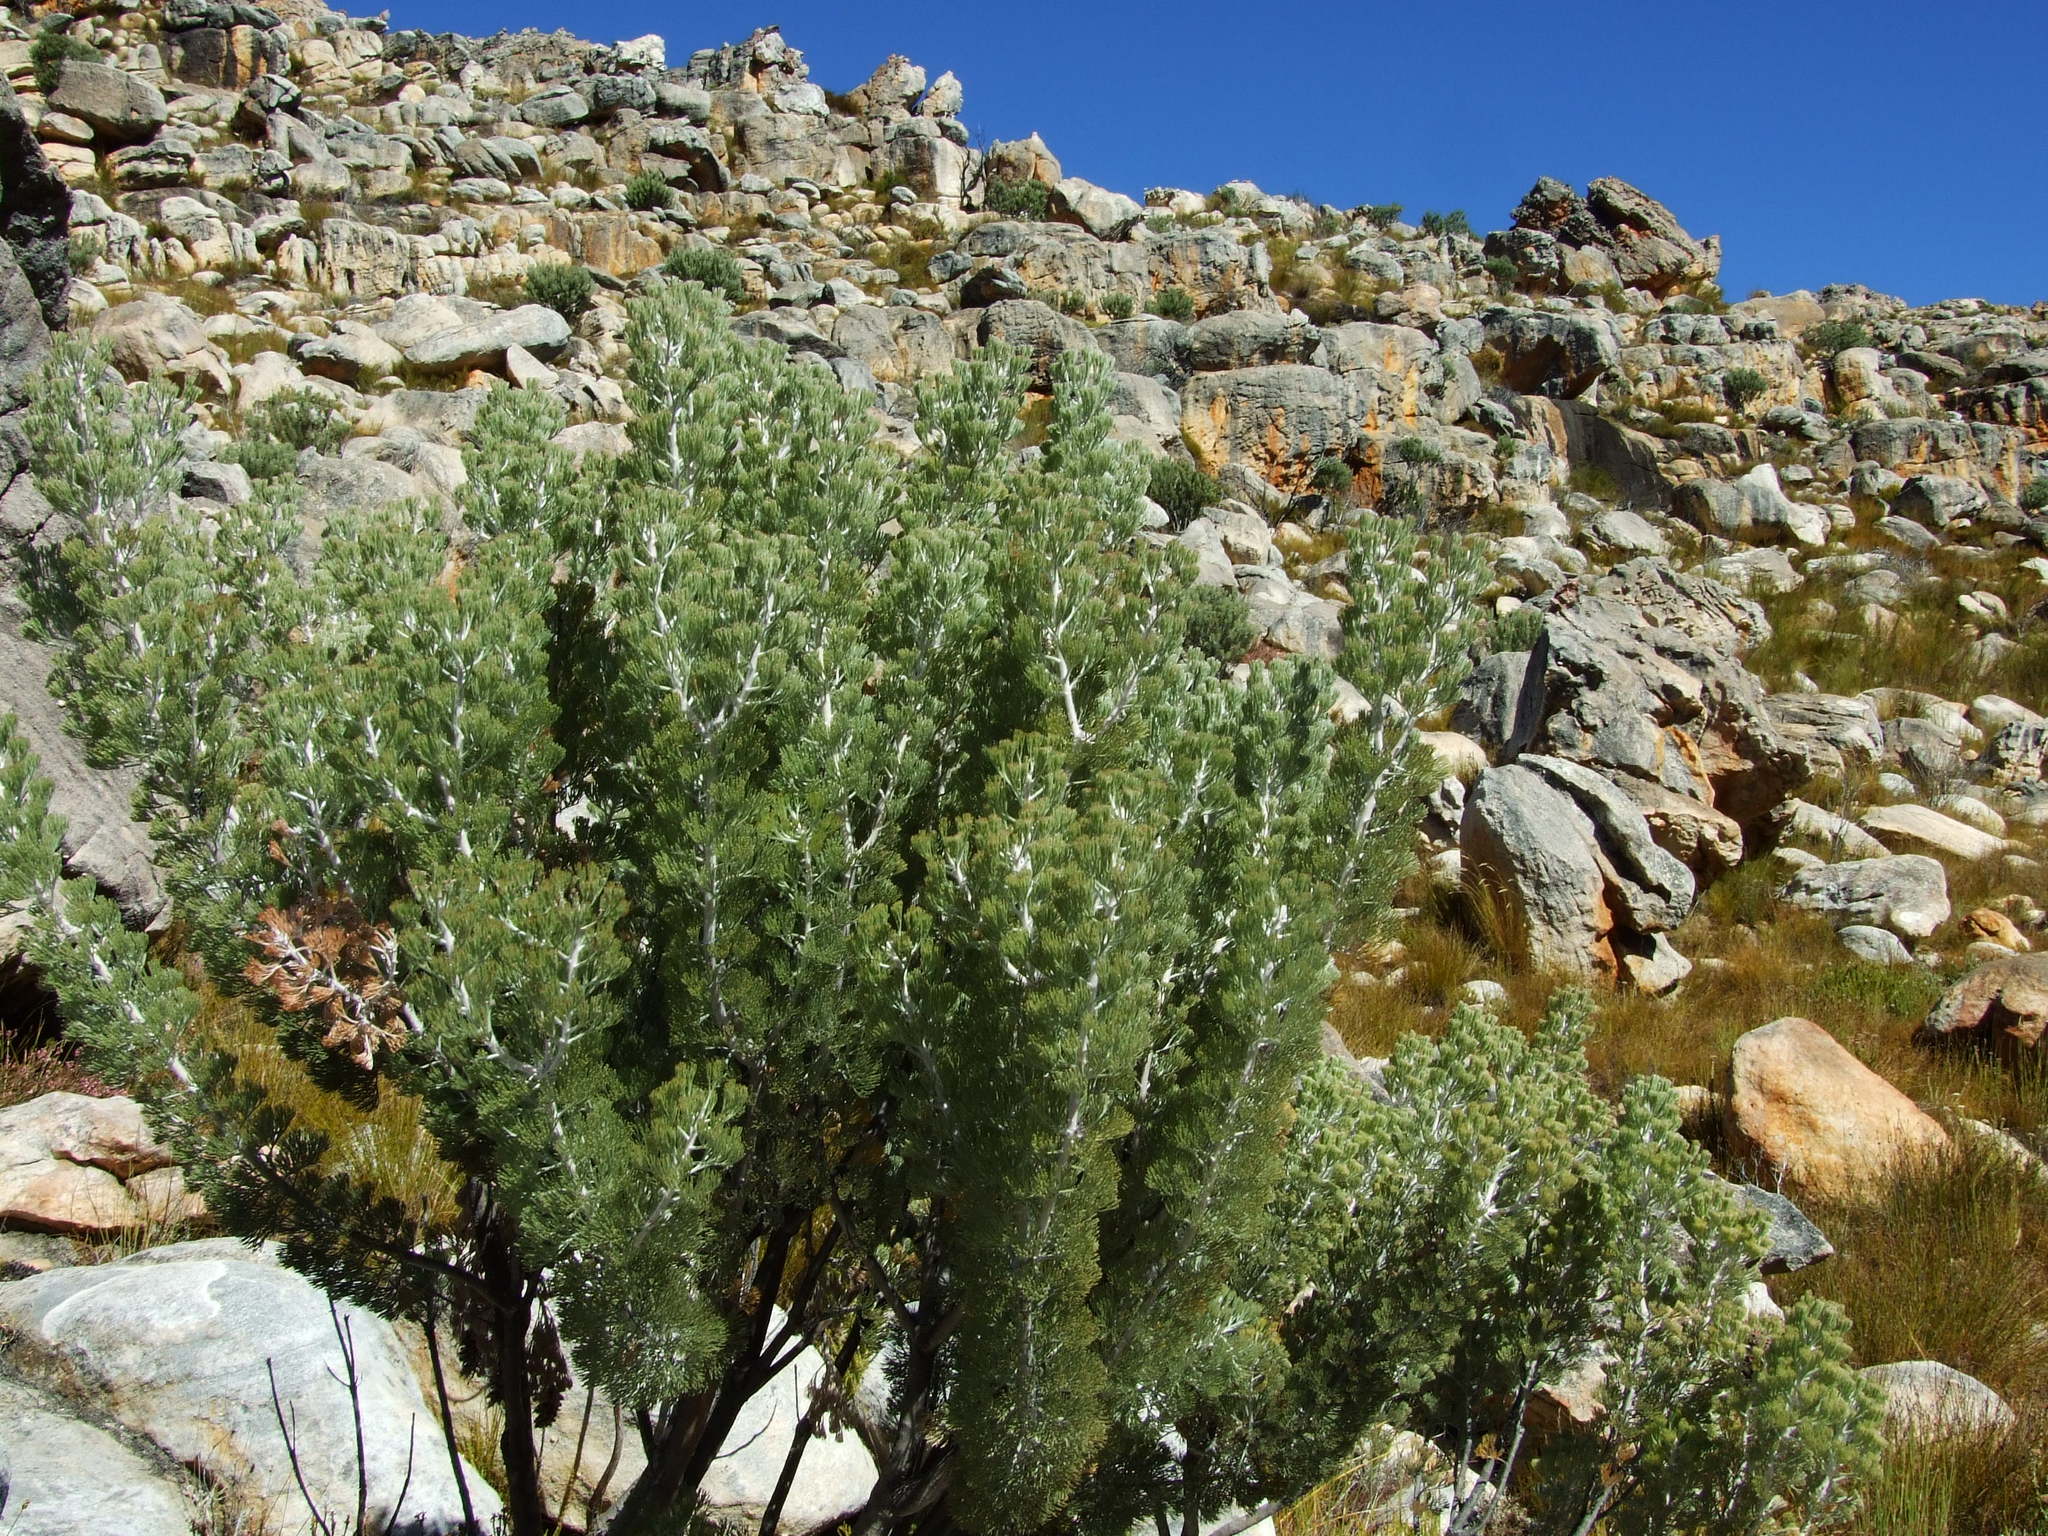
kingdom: Plantae
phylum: Tracheophyta
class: Magnoliopsida
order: Proteales
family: Proteaceae
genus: Paranomus
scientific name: Paranomus tomentosus
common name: Hairy-leaf tree sceptre
